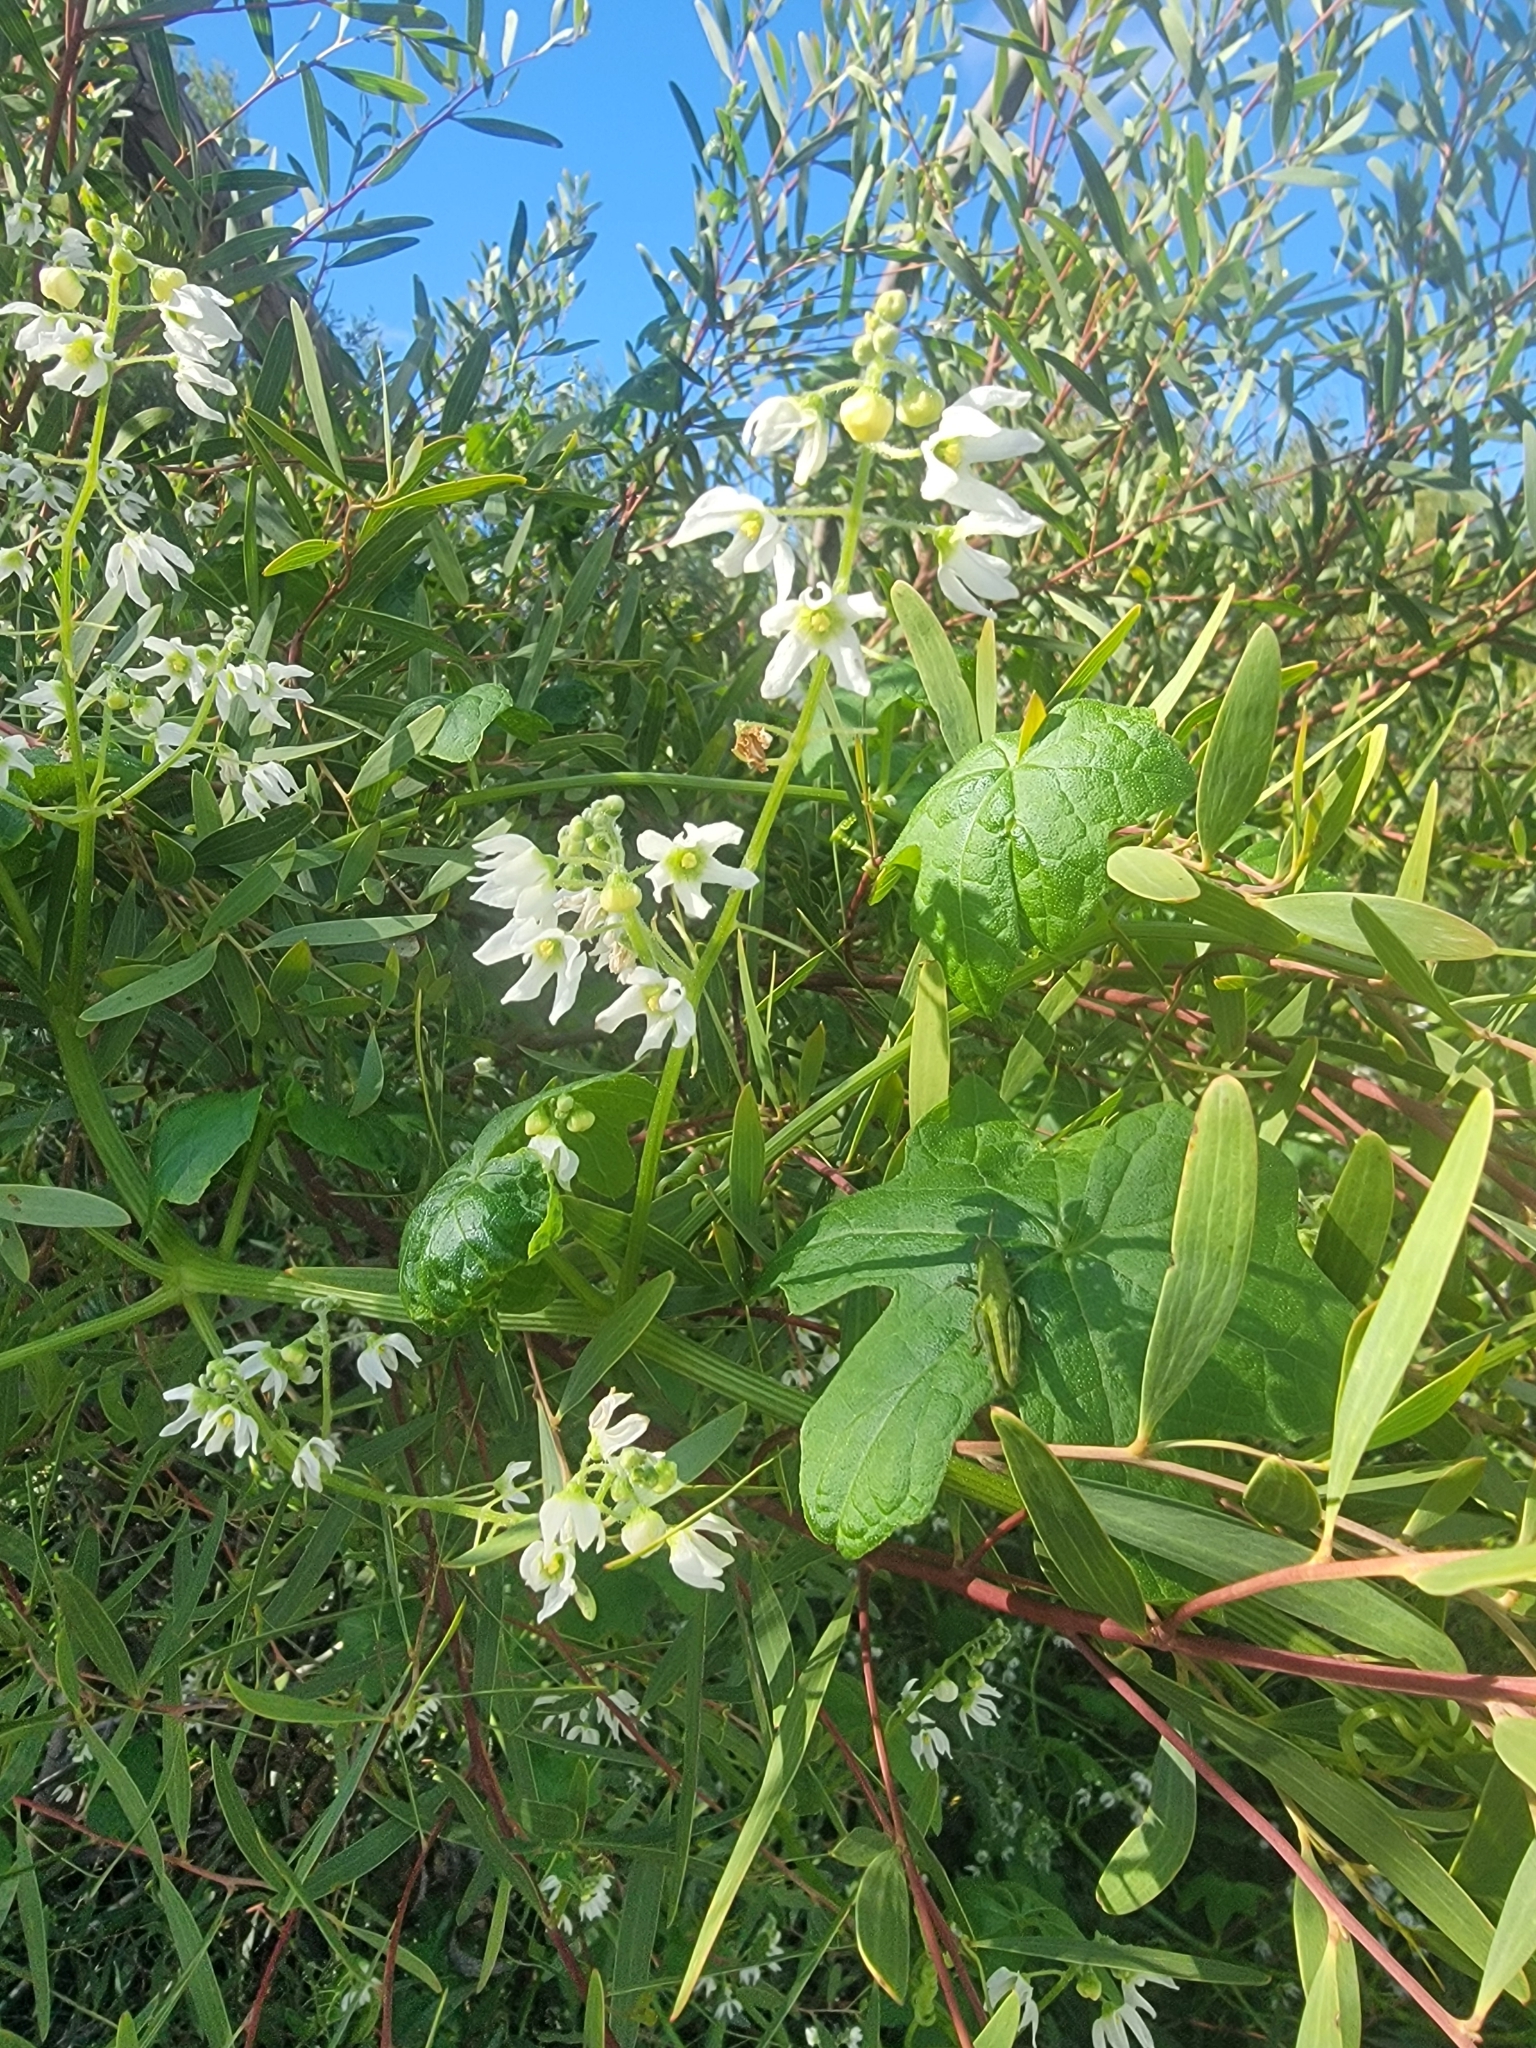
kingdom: Plantae
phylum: Tracheophyta
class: Magnoliopsida
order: Cucurbitales
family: Cucurbitaceae
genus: Marah
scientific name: Marah macrocarpa
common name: Cucamonga manroot
